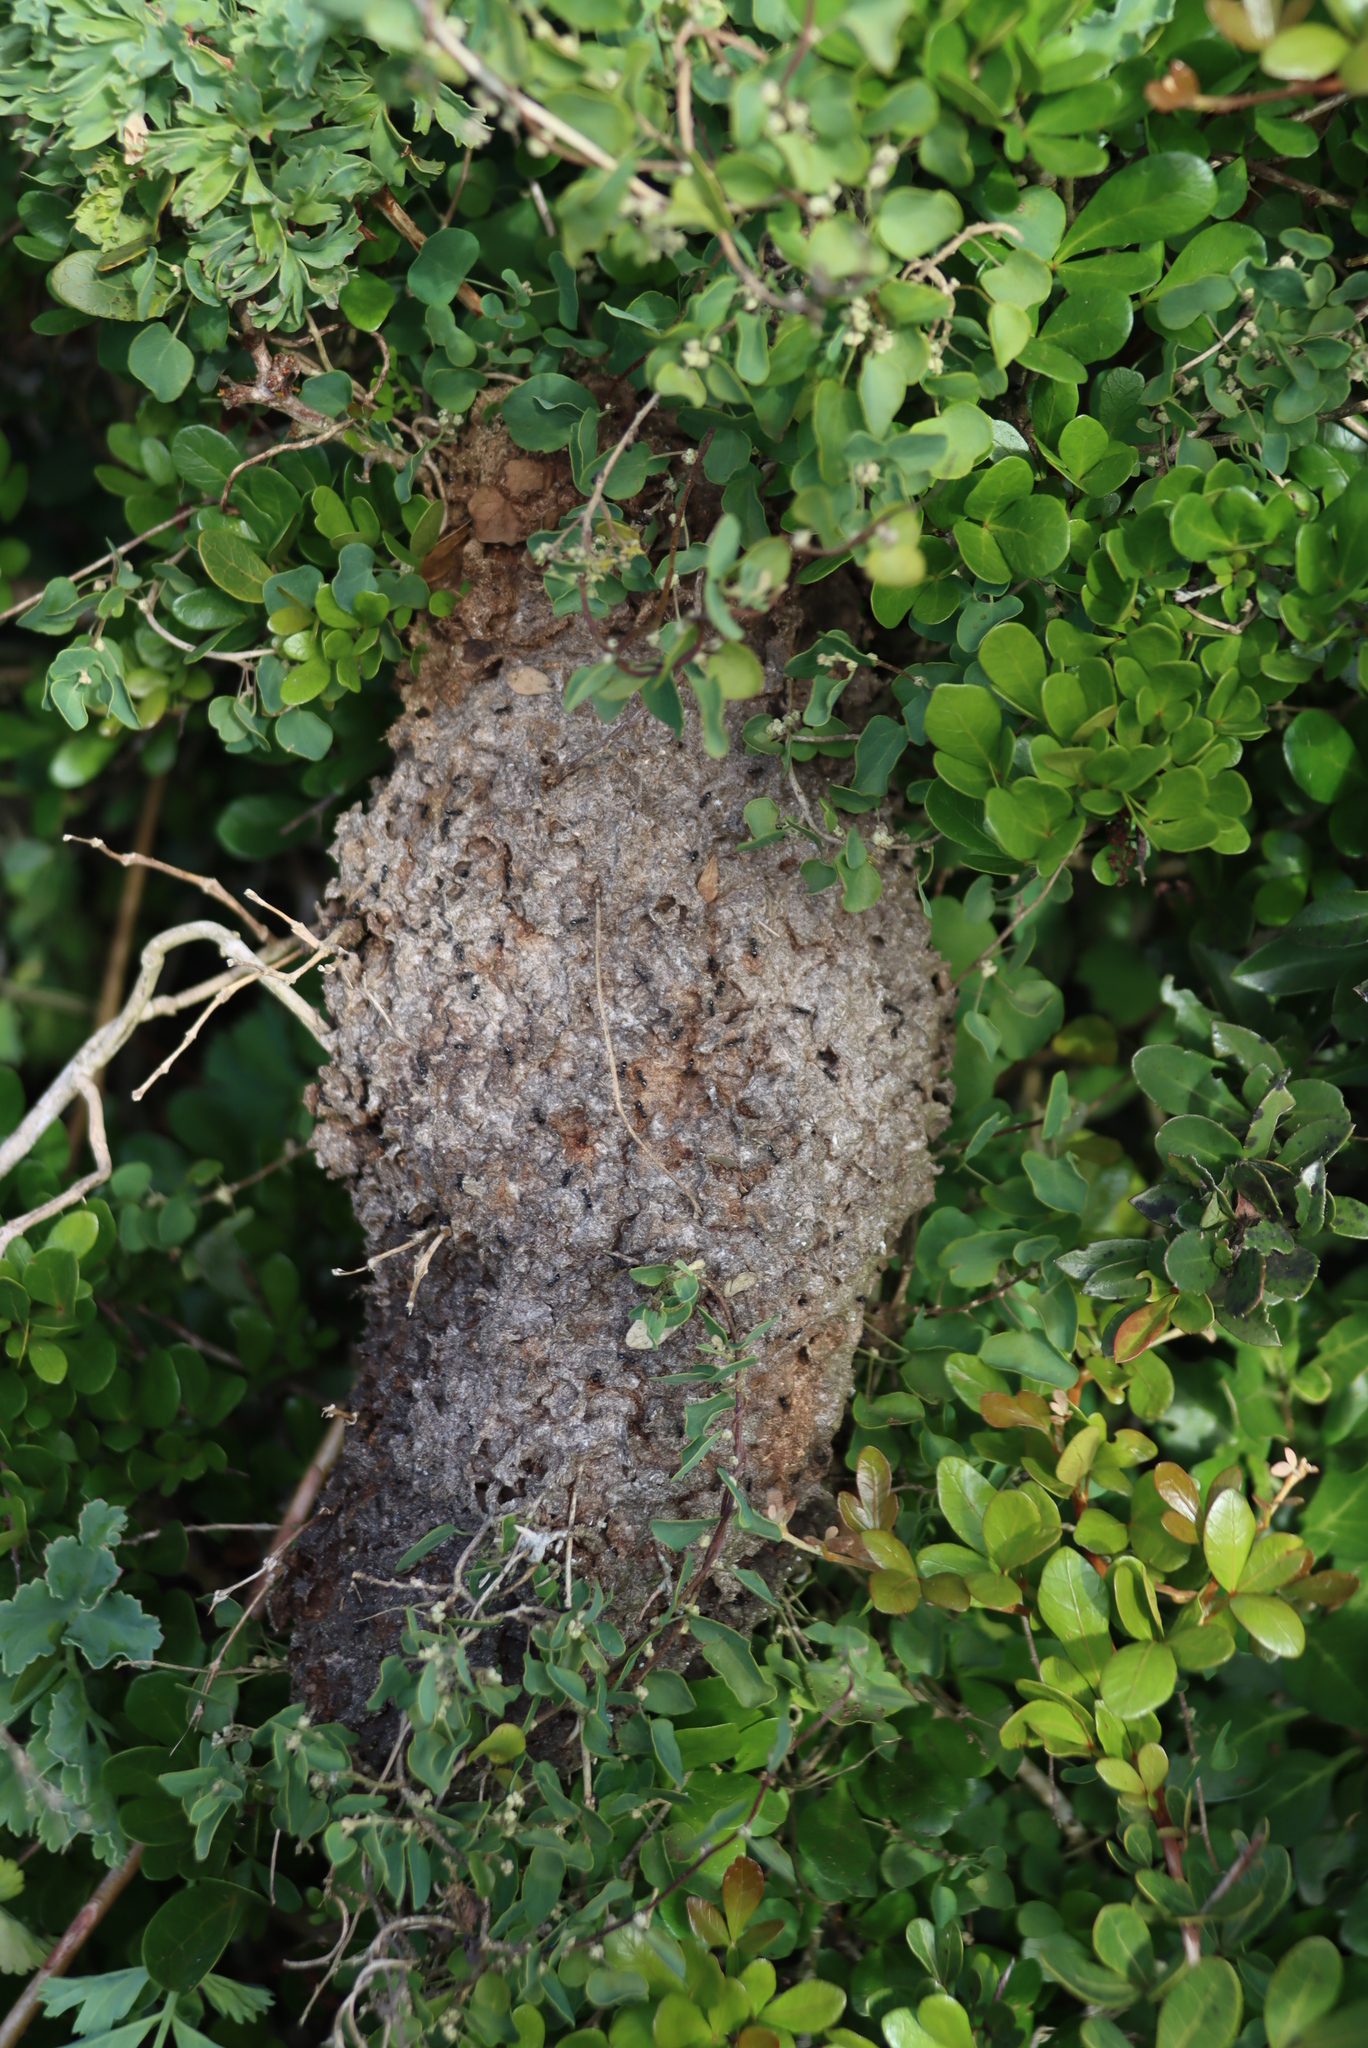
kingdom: Plantae
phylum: Tracheophyta
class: Magnoliopsida
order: Sapindales
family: Anacardiaceae
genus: Searsia
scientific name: Searsia pterota
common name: Winged currant
